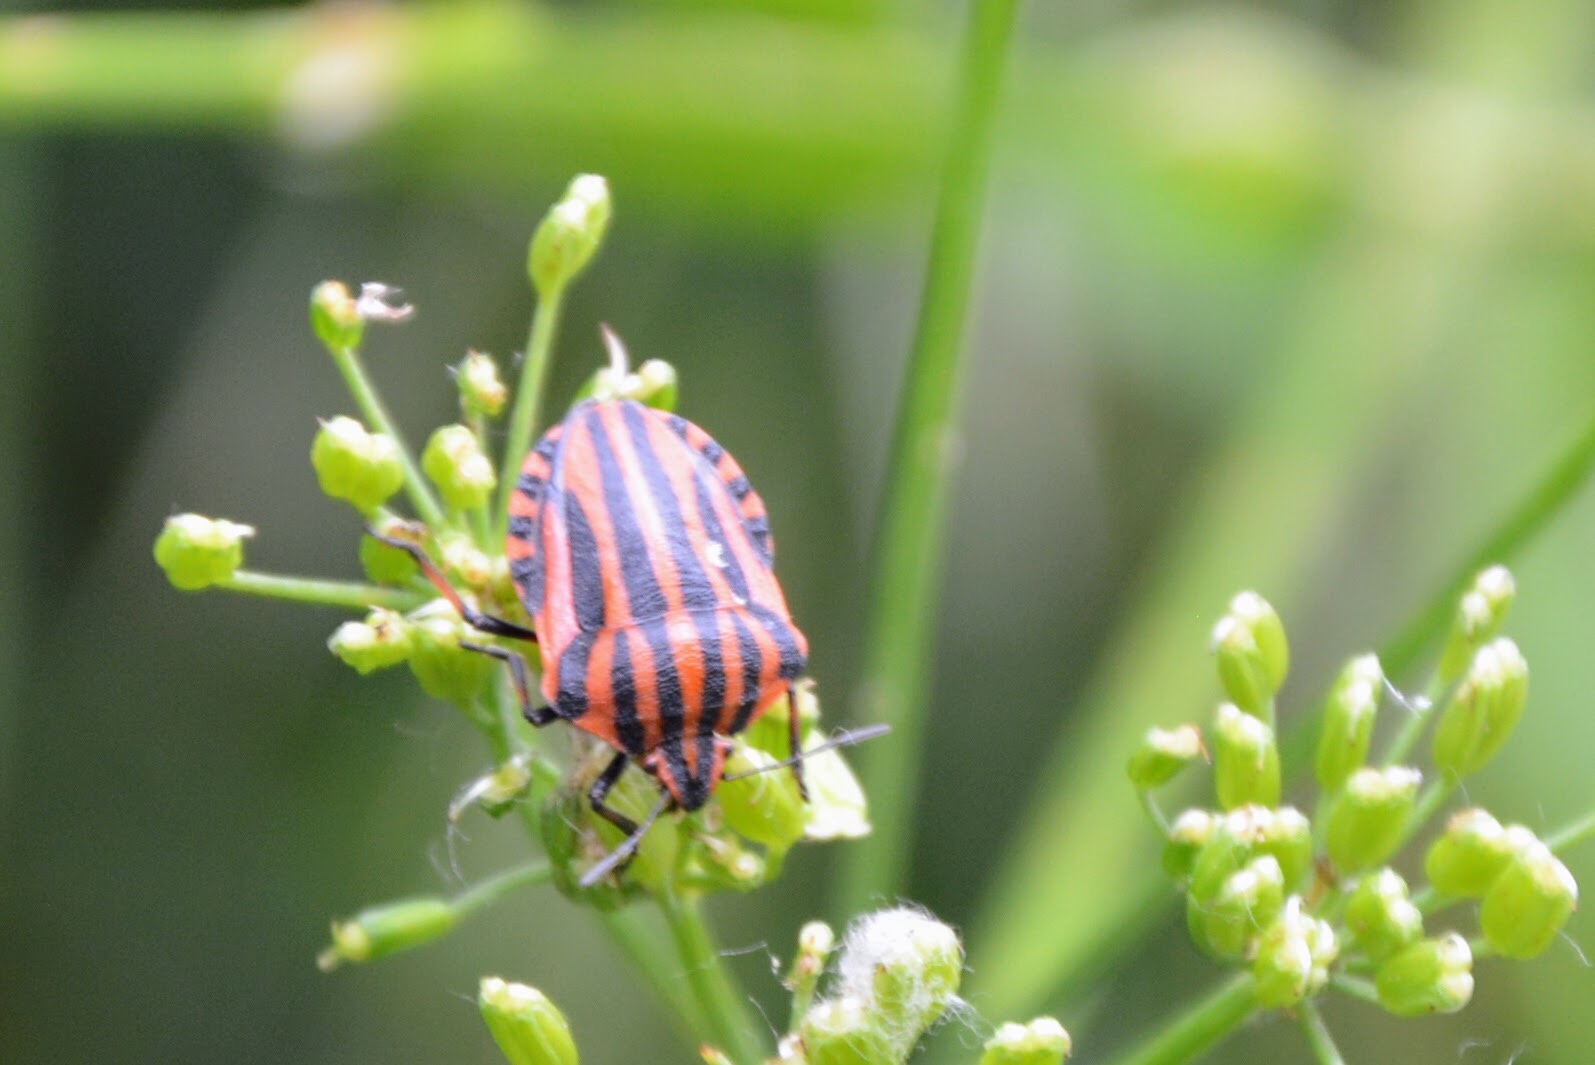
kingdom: Animalia
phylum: Arthropoda
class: Insecta
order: Hemiptera
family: Pentatomidae
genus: Graphosoma
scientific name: Graphosoma italicum
